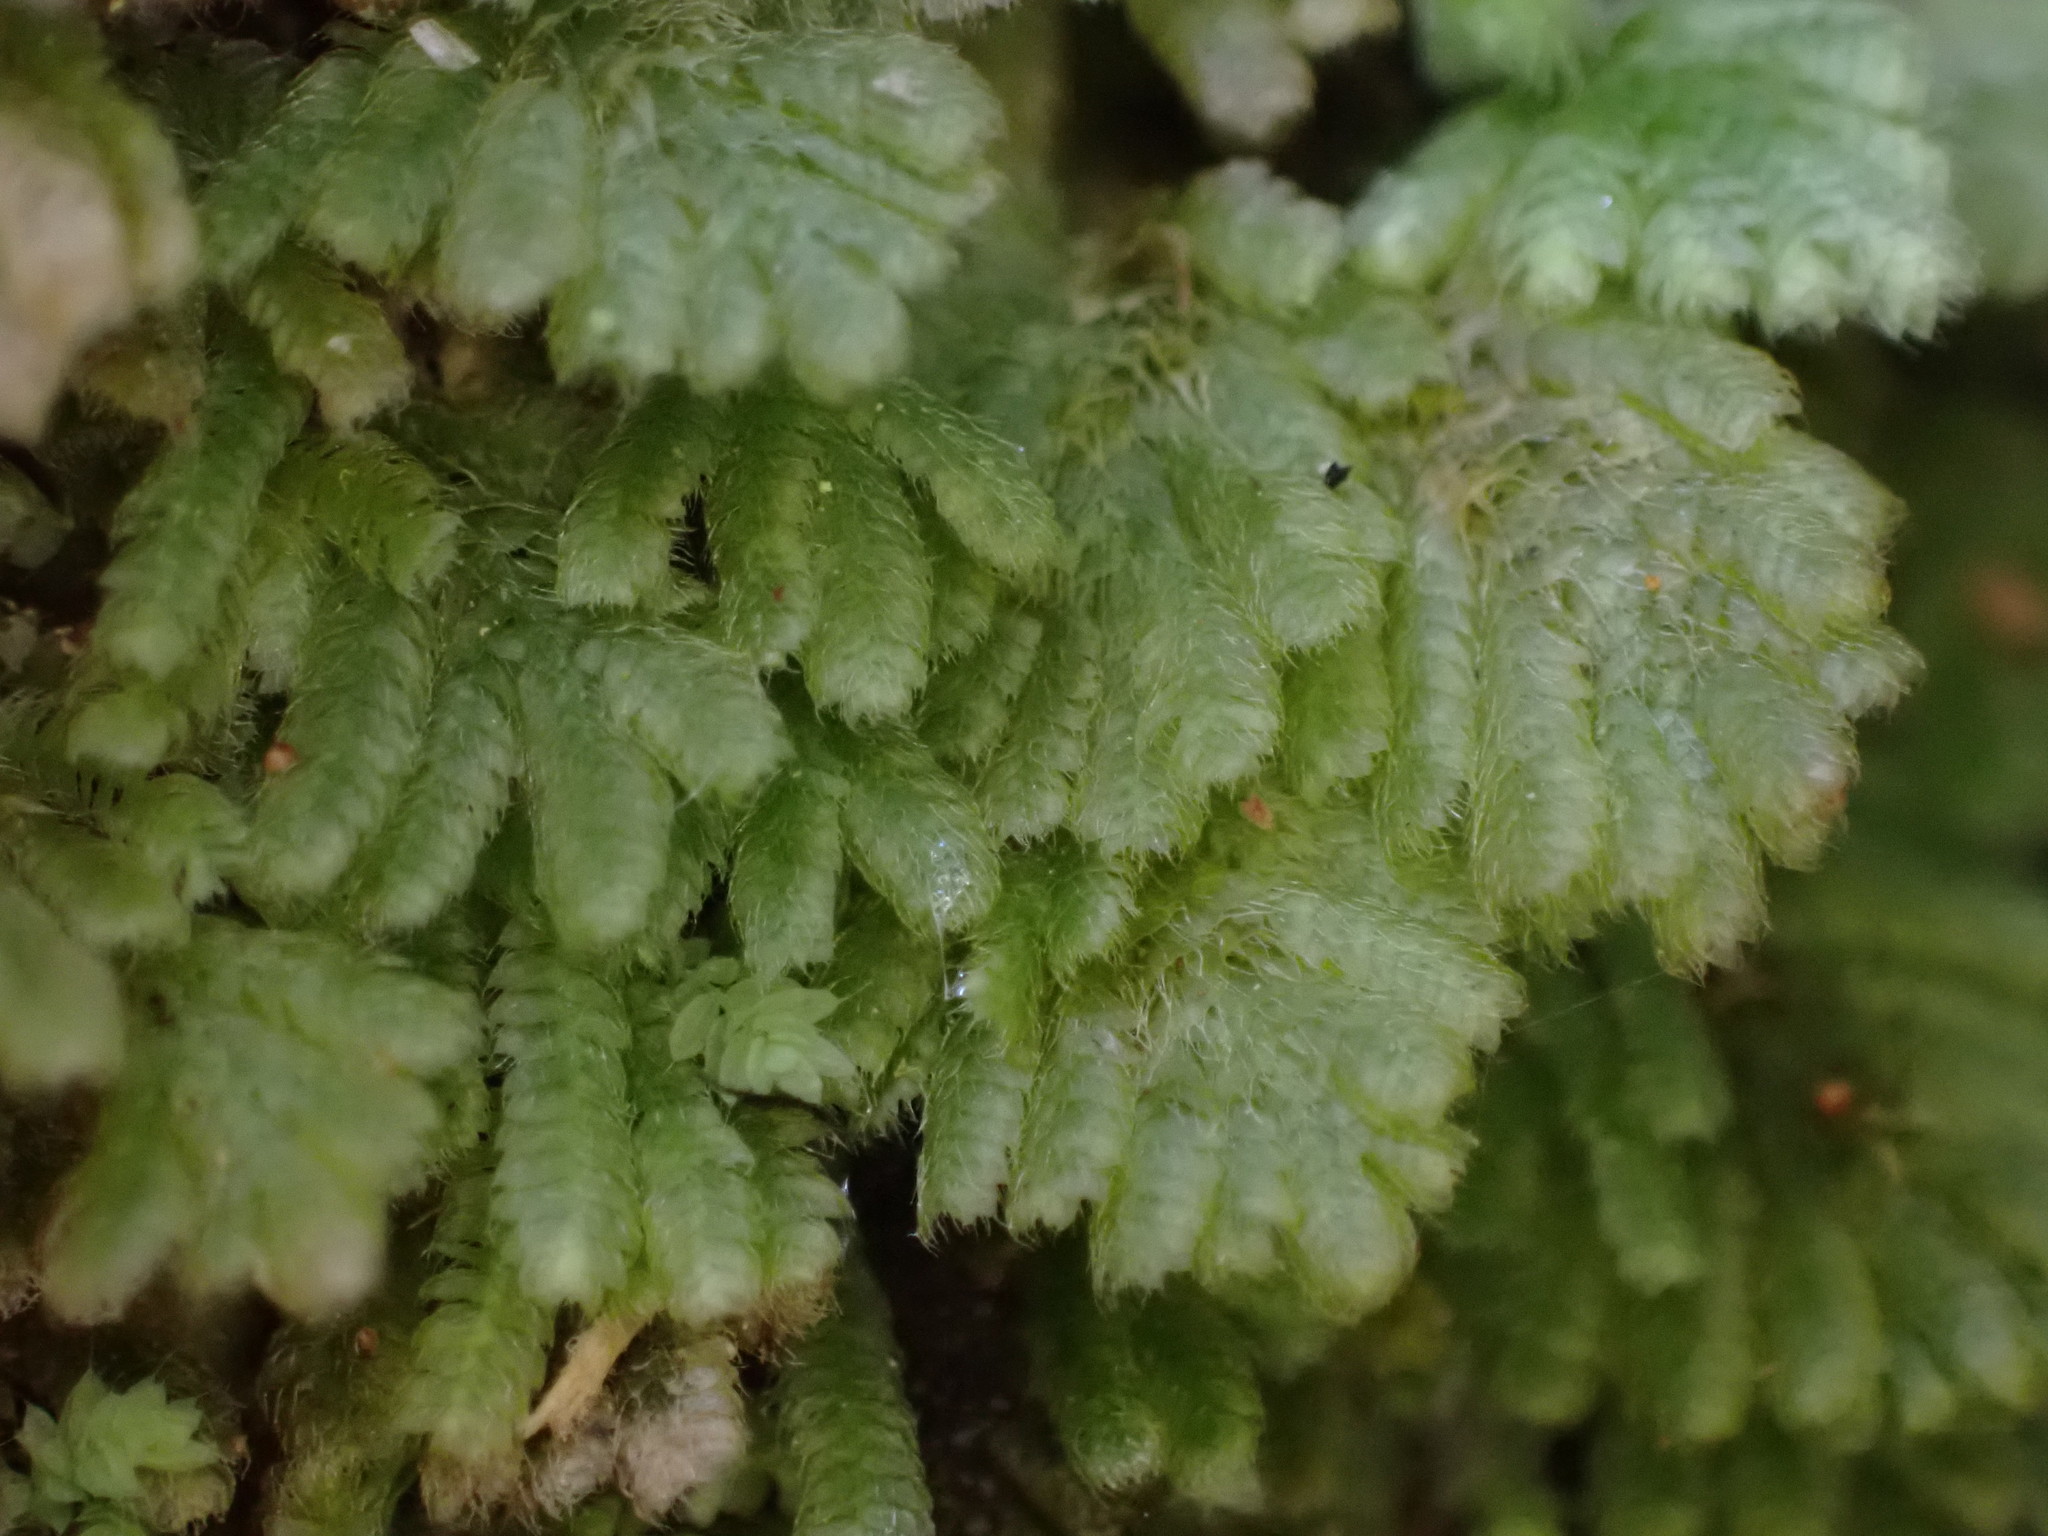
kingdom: Plantae
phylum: Bryophyta
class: Bryopsida
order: Hypopterygiales
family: Hypopterygiaceae
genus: Catharomnion
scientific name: Catharomnion ciliatum
